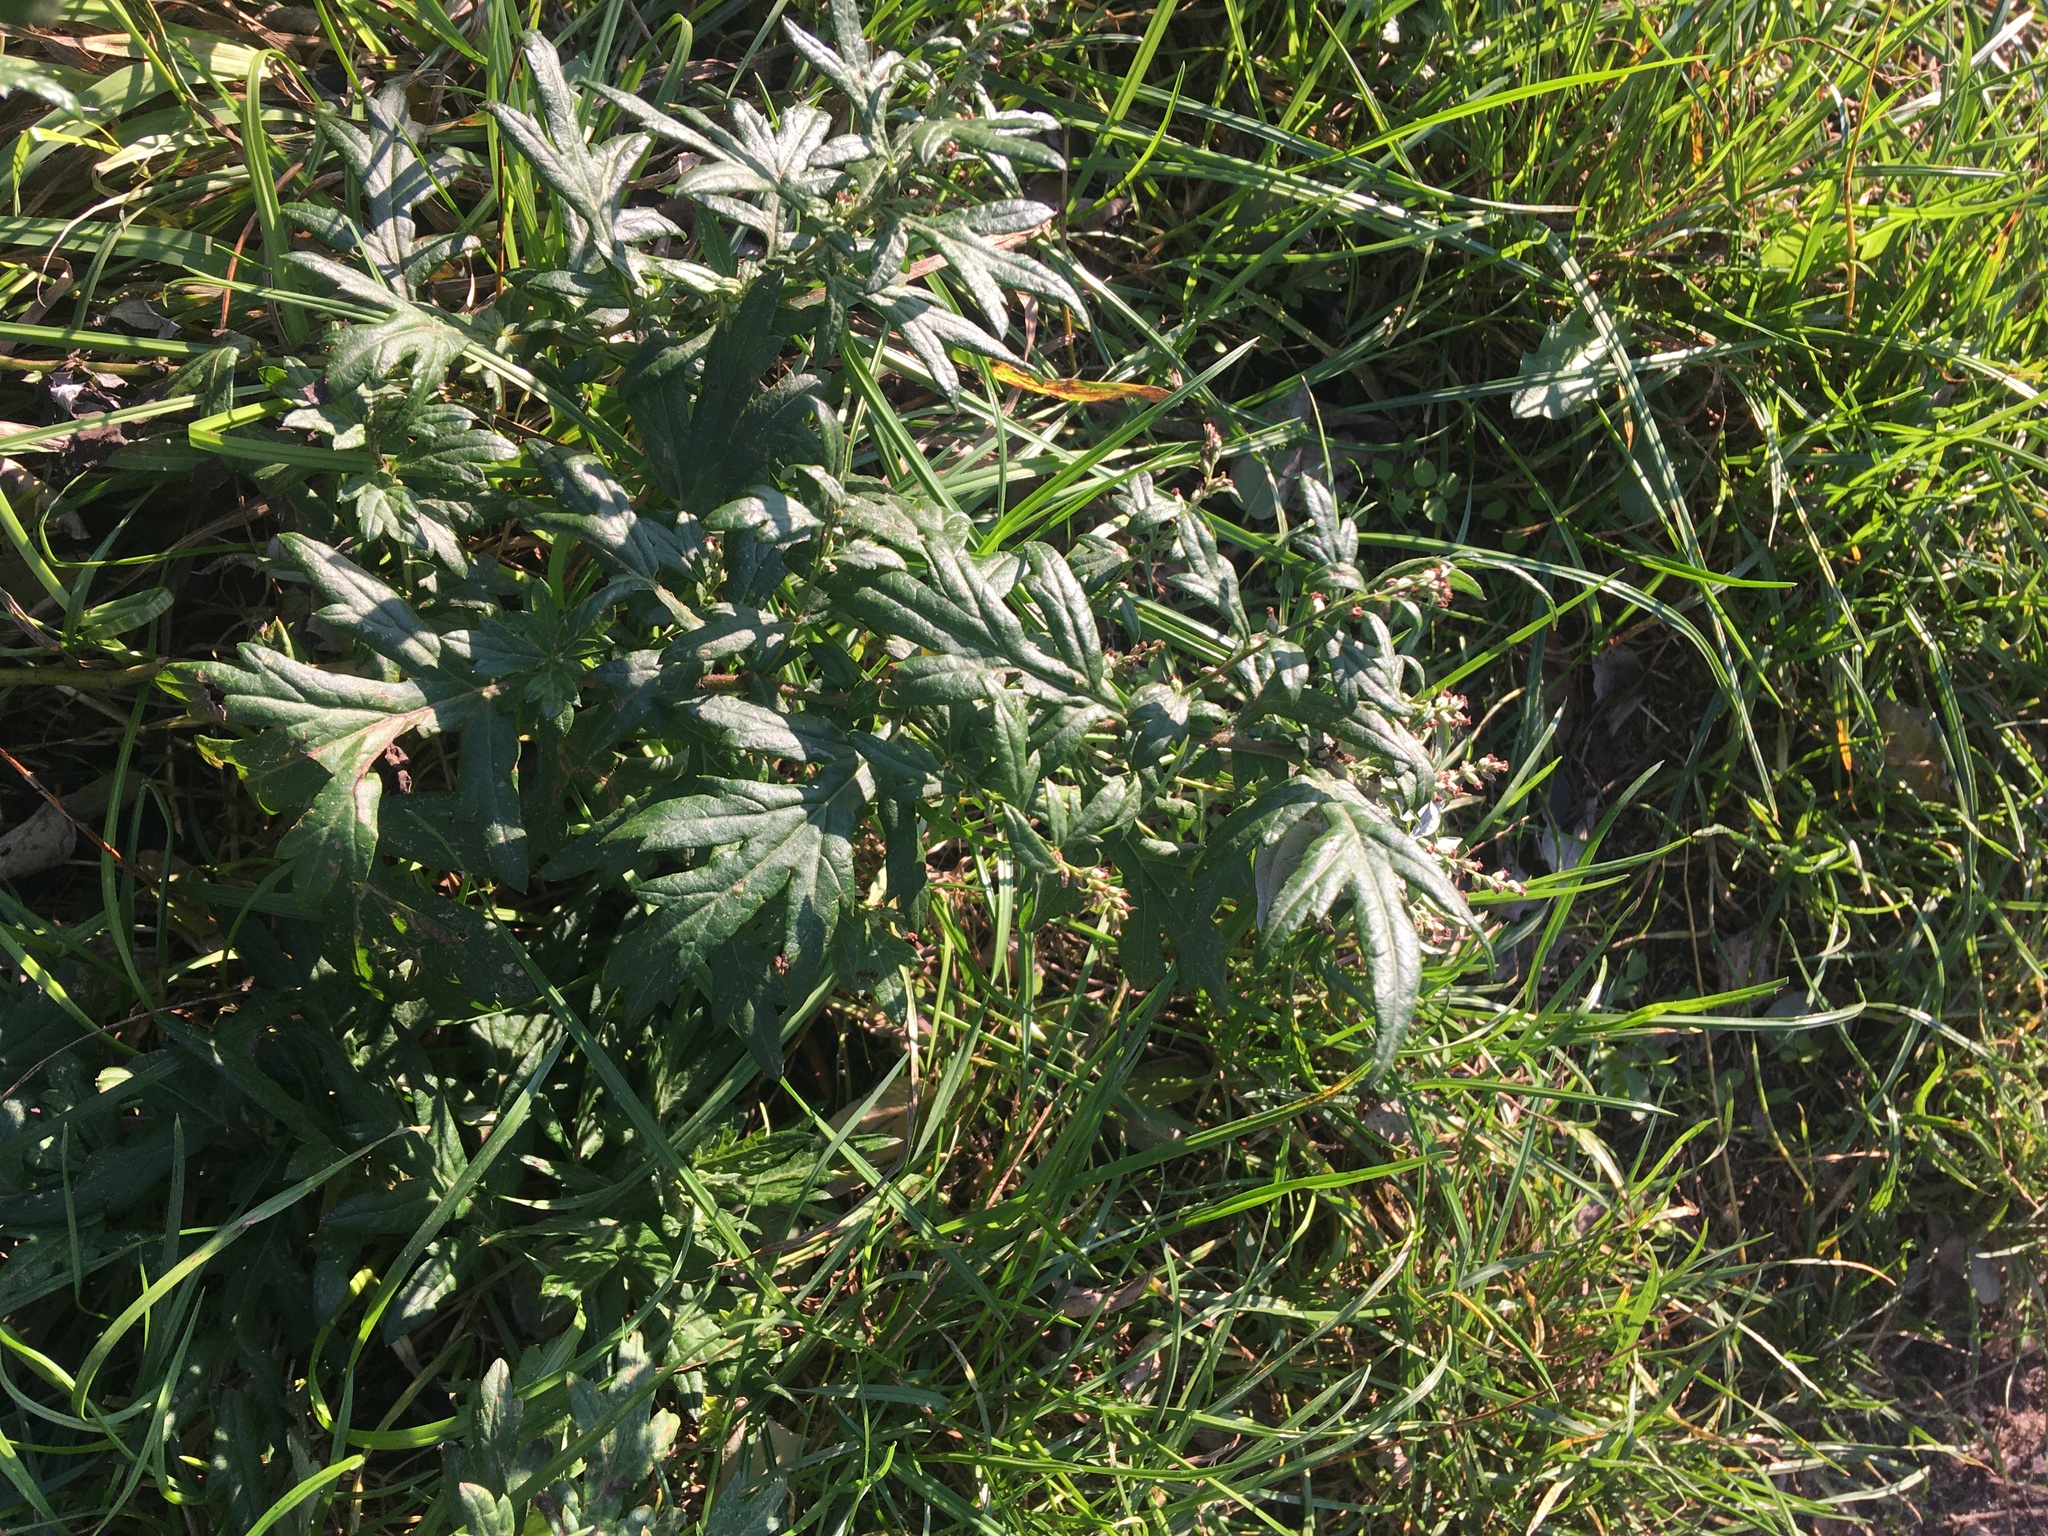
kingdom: Plantae
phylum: Tracheophyta
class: Magnoliopsida
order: Asterales
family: Asteraceae
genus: Artemisia
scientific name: Artemisia vulgaris
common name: Mugwort
